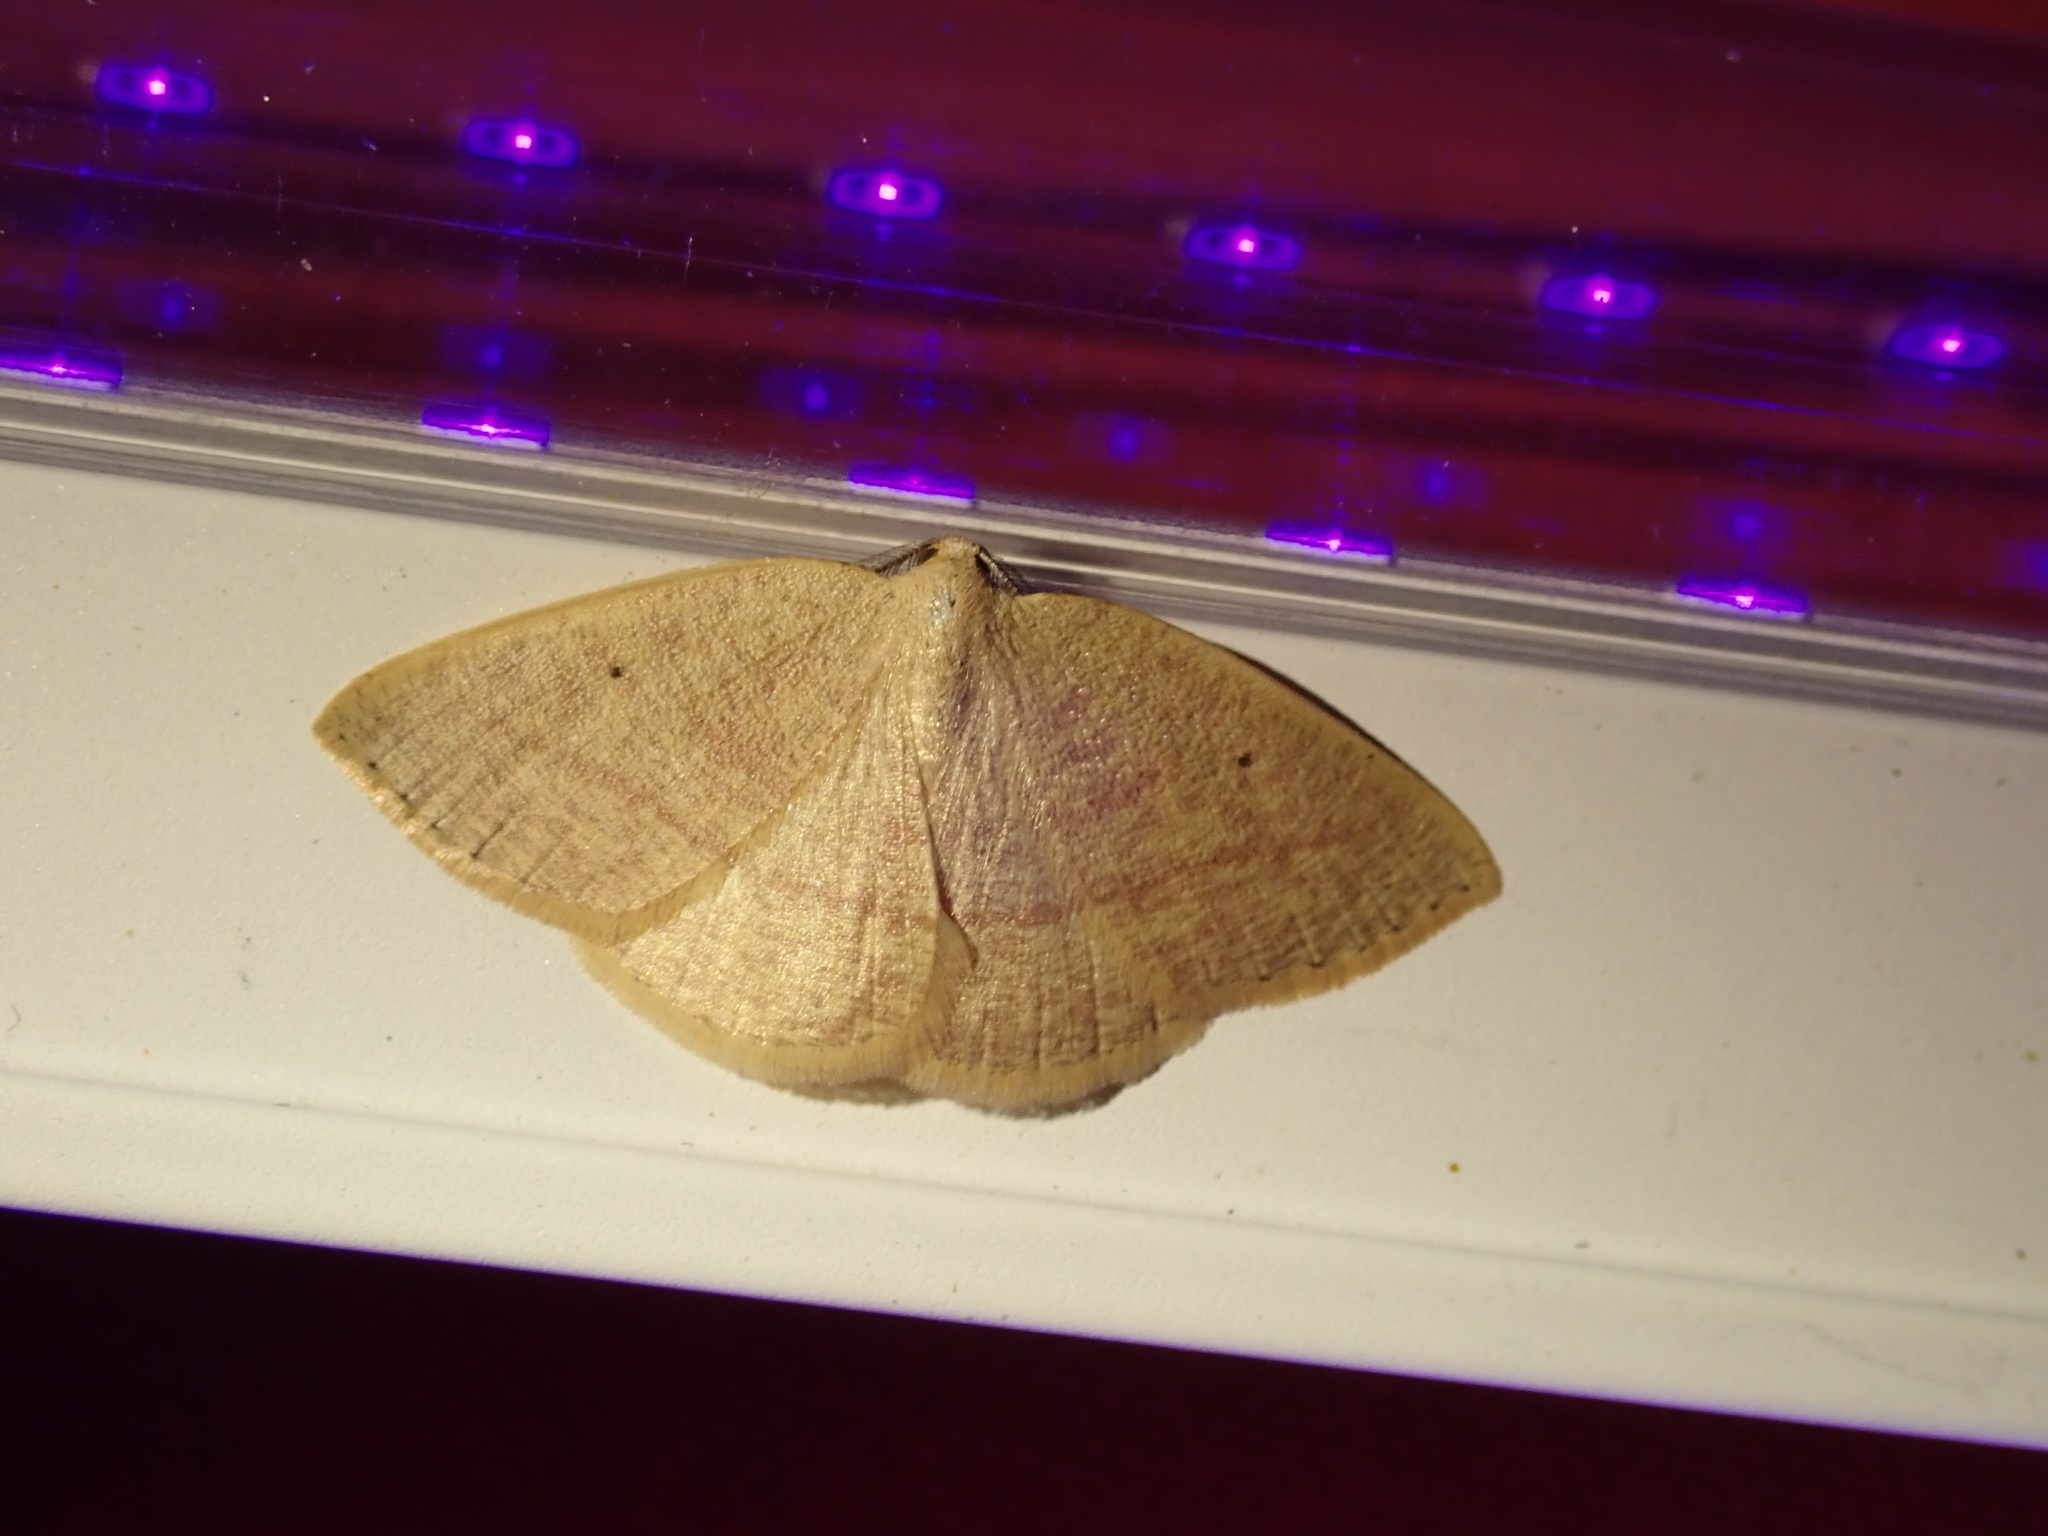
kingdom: Animalia
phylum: Arthropoda
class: Insecta
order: Lepidoptera
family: Geometridae
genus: Eudrepanulatrix
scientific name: Eudrepanulatrix rectifascia
